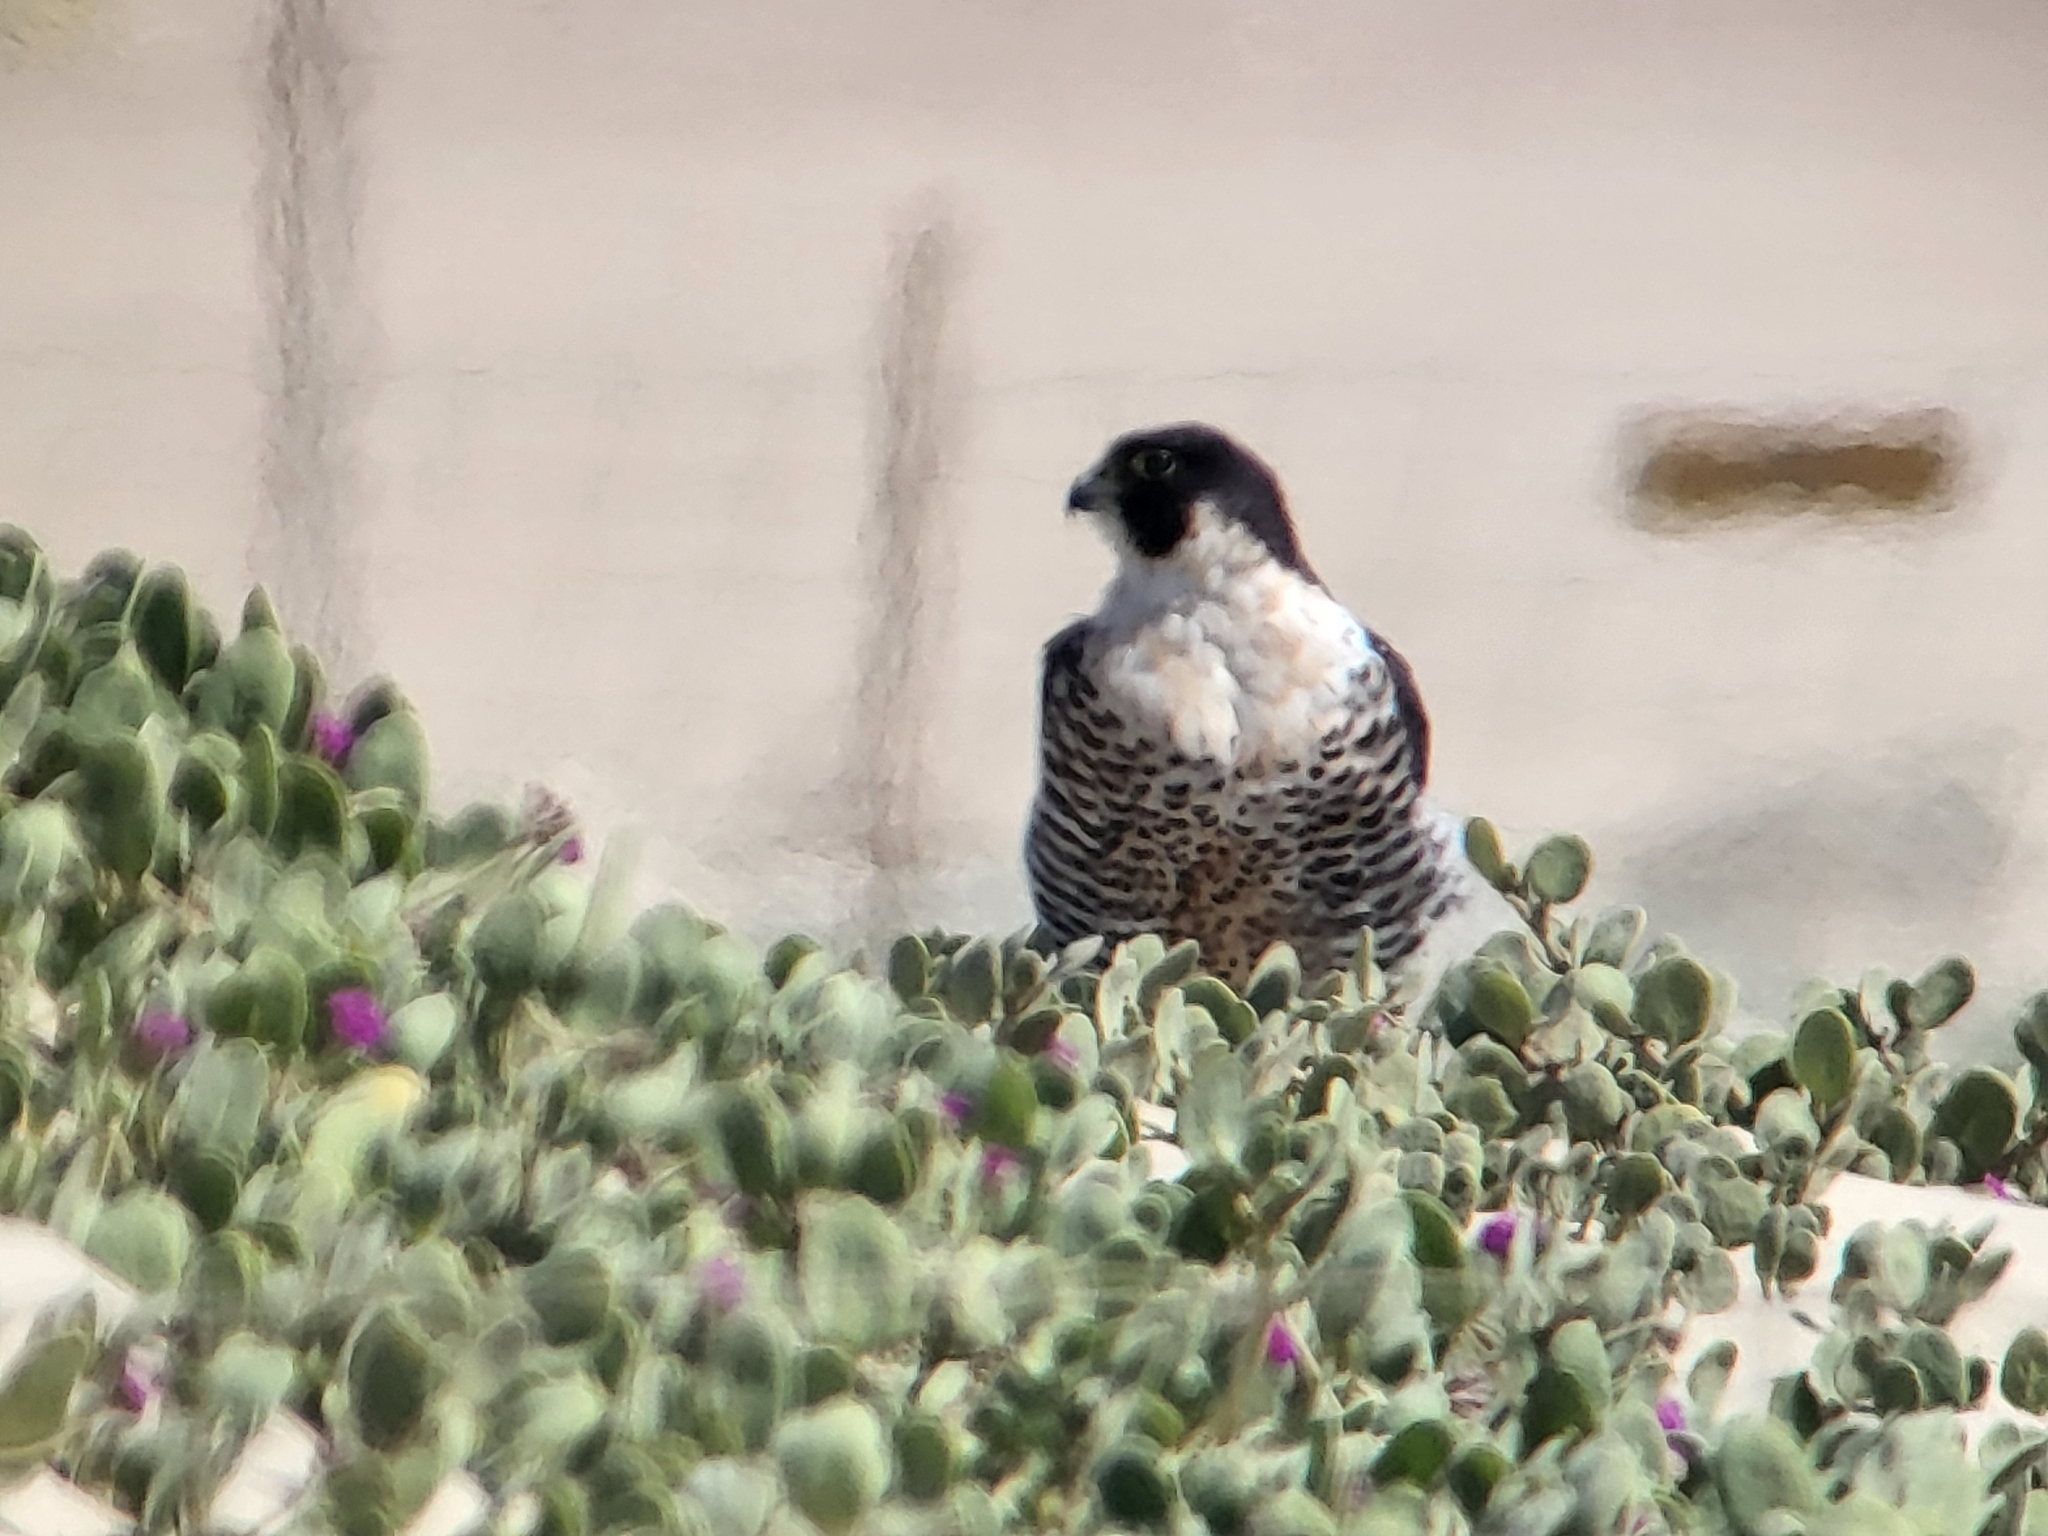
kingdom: Animalia
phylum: Chordata
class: Aves
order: Falconiformes
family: Falconidae
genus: Falco
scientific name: Falco peregrinus
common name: Peregrine falcon
